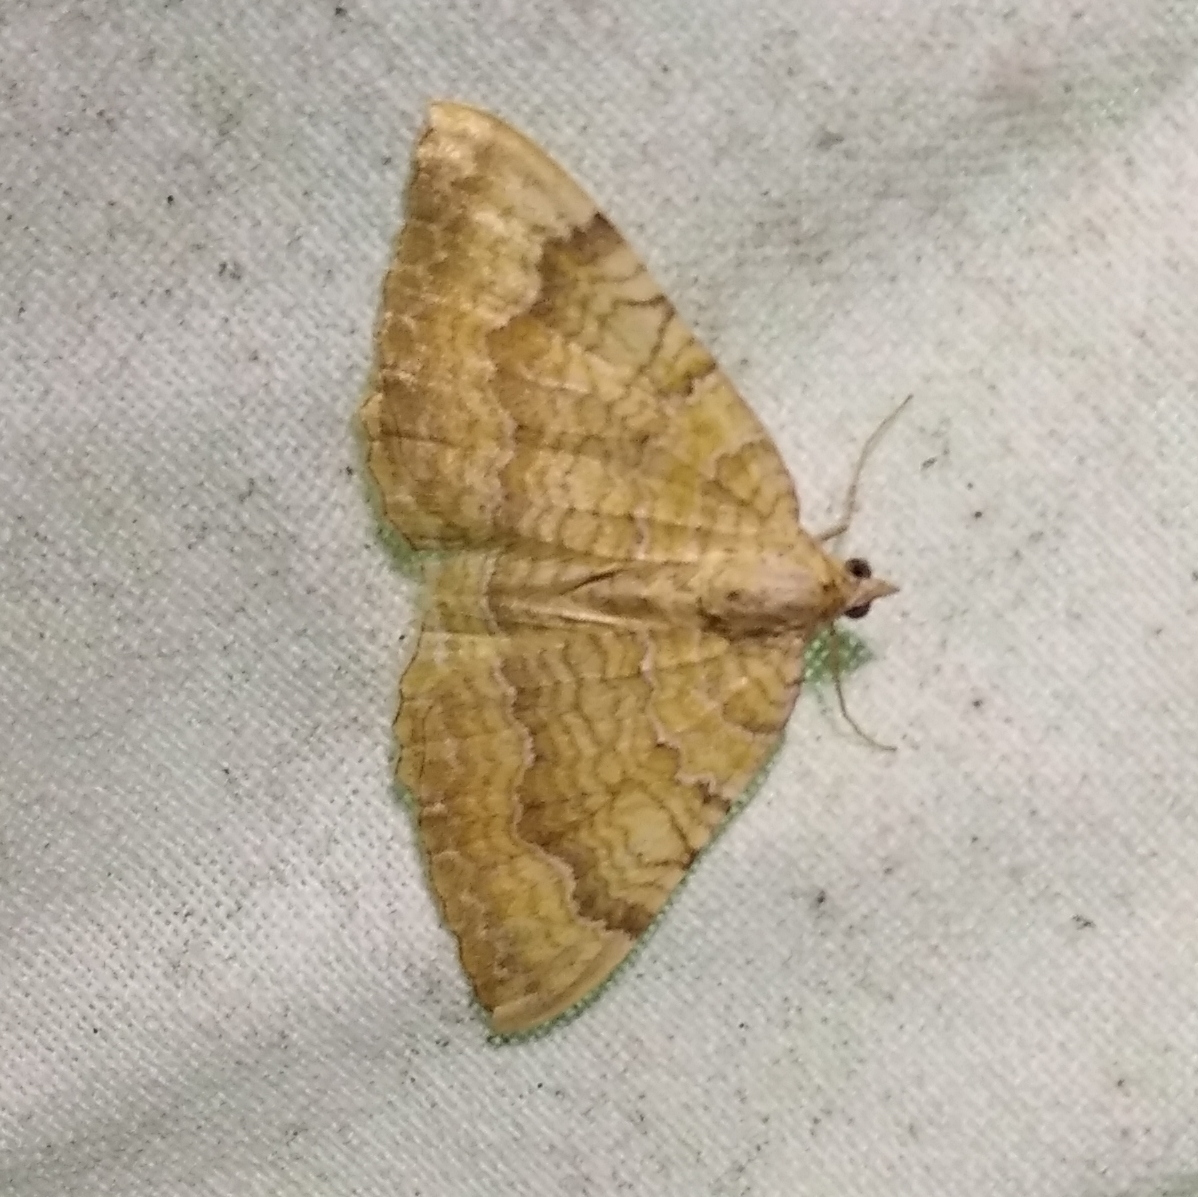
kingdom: Animalia
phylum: Arthropoda
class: Insecta
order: Lepidoptera
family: Geometridae
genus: Camptogramma
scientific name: Camptogramma bilineata
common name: Yellow shell
